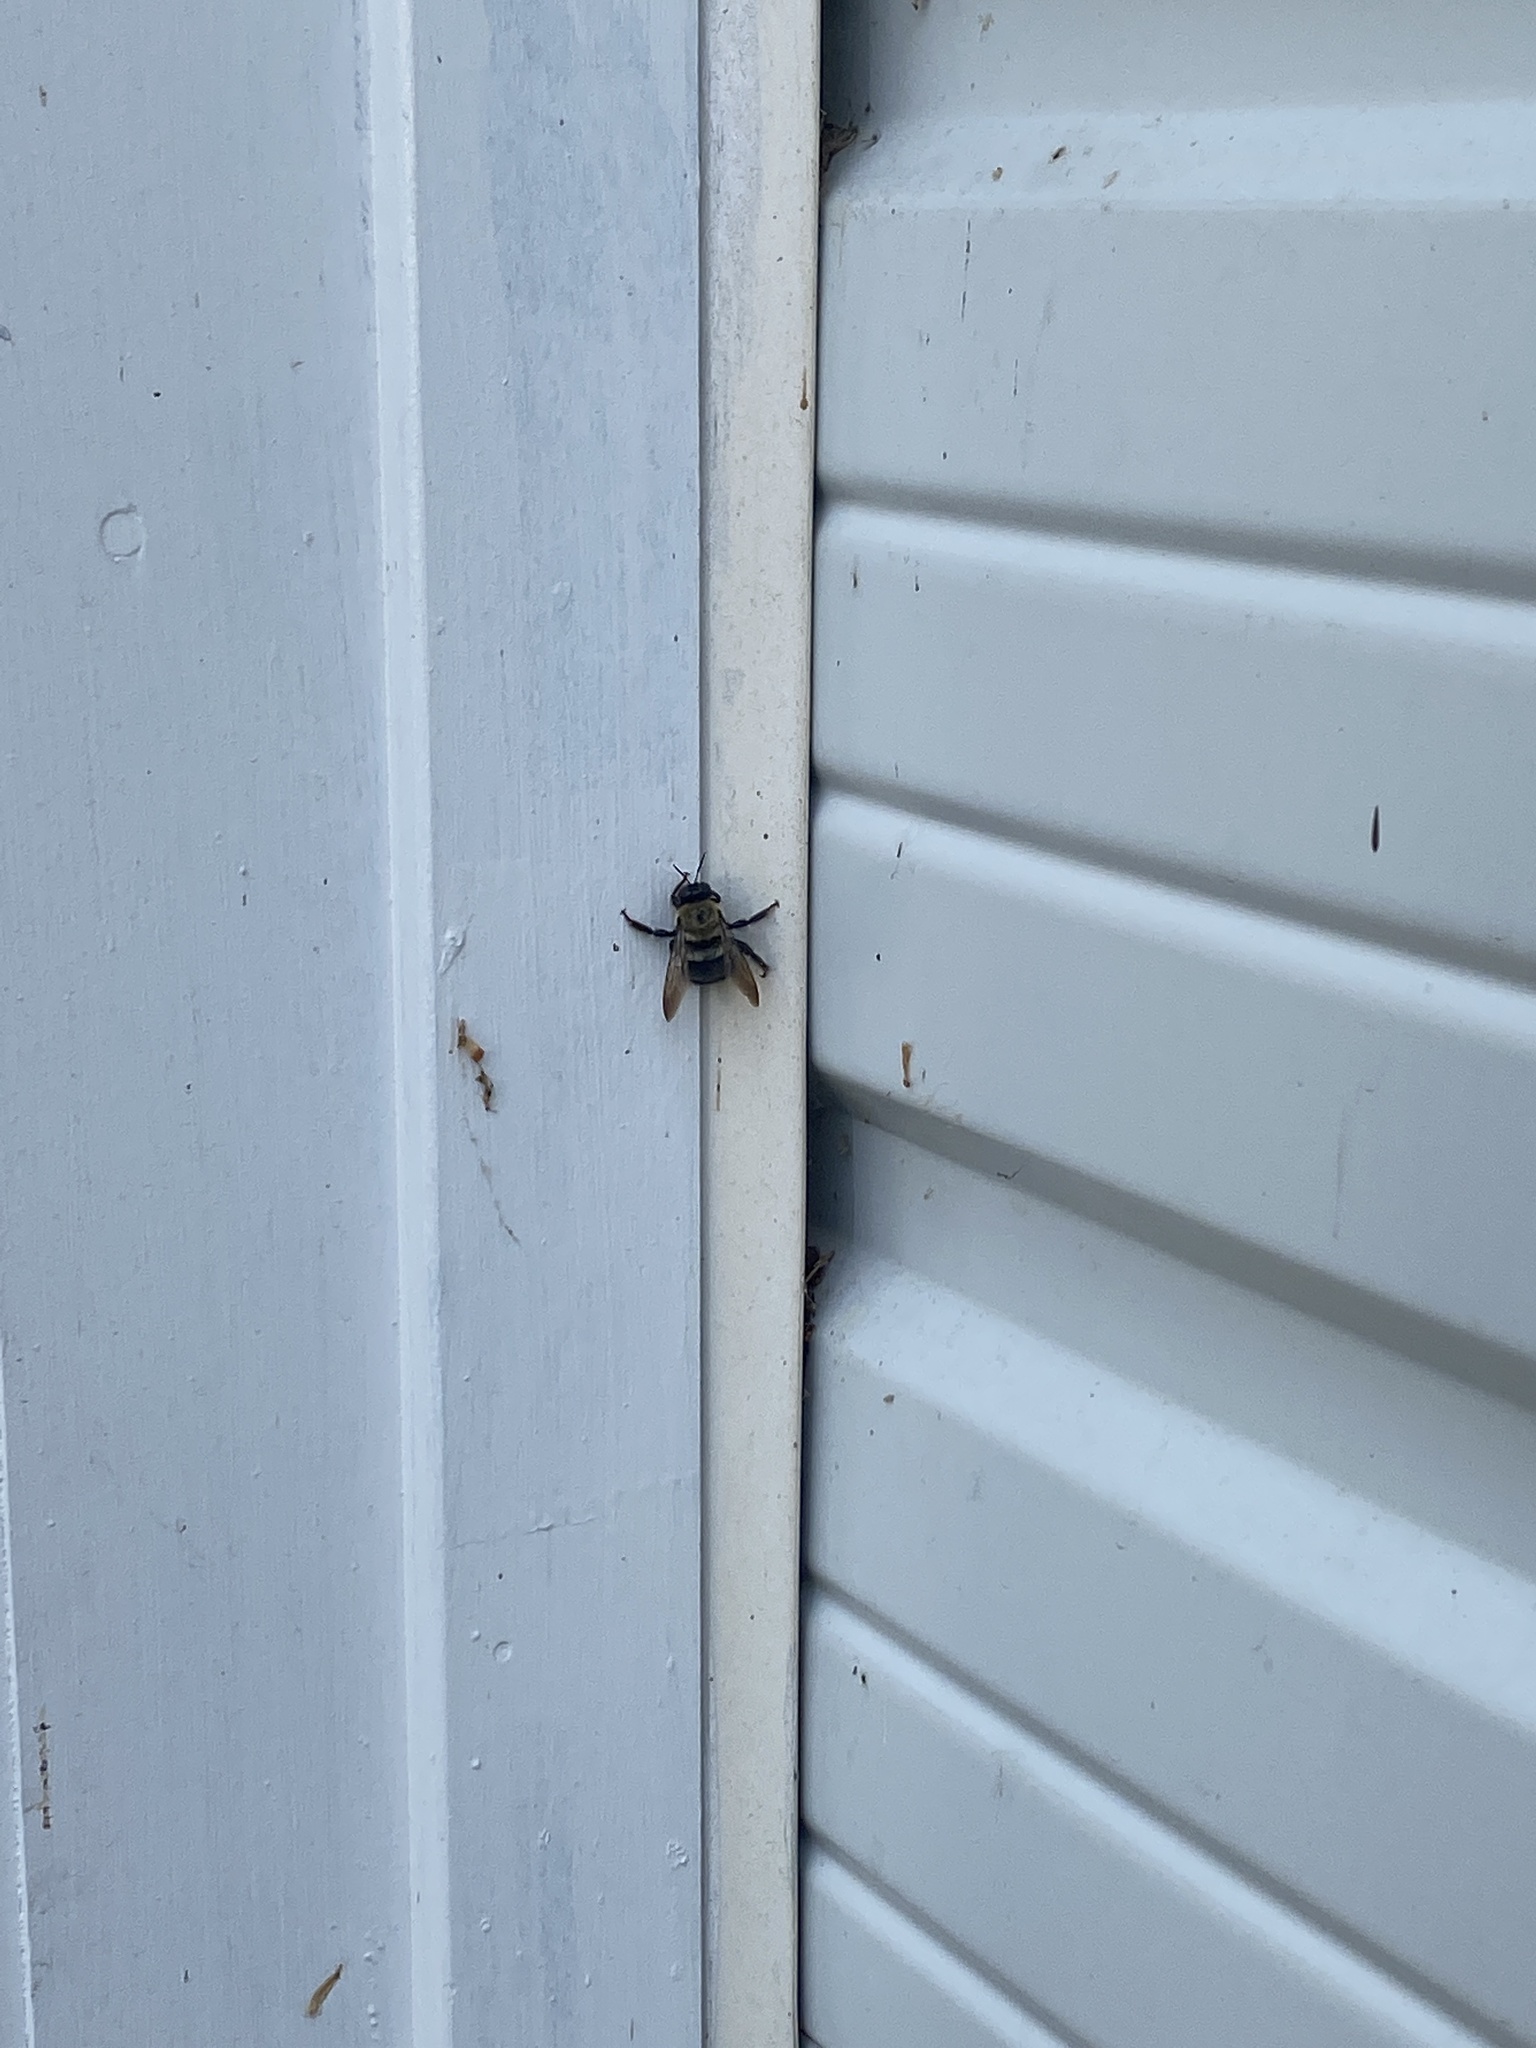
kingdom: Animalia
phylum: Arthropoda
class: Insecta
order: Hymenoptera
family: Apidae
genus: Xylocopa
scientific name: Xylocopa virginica
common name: Carpenter bee
